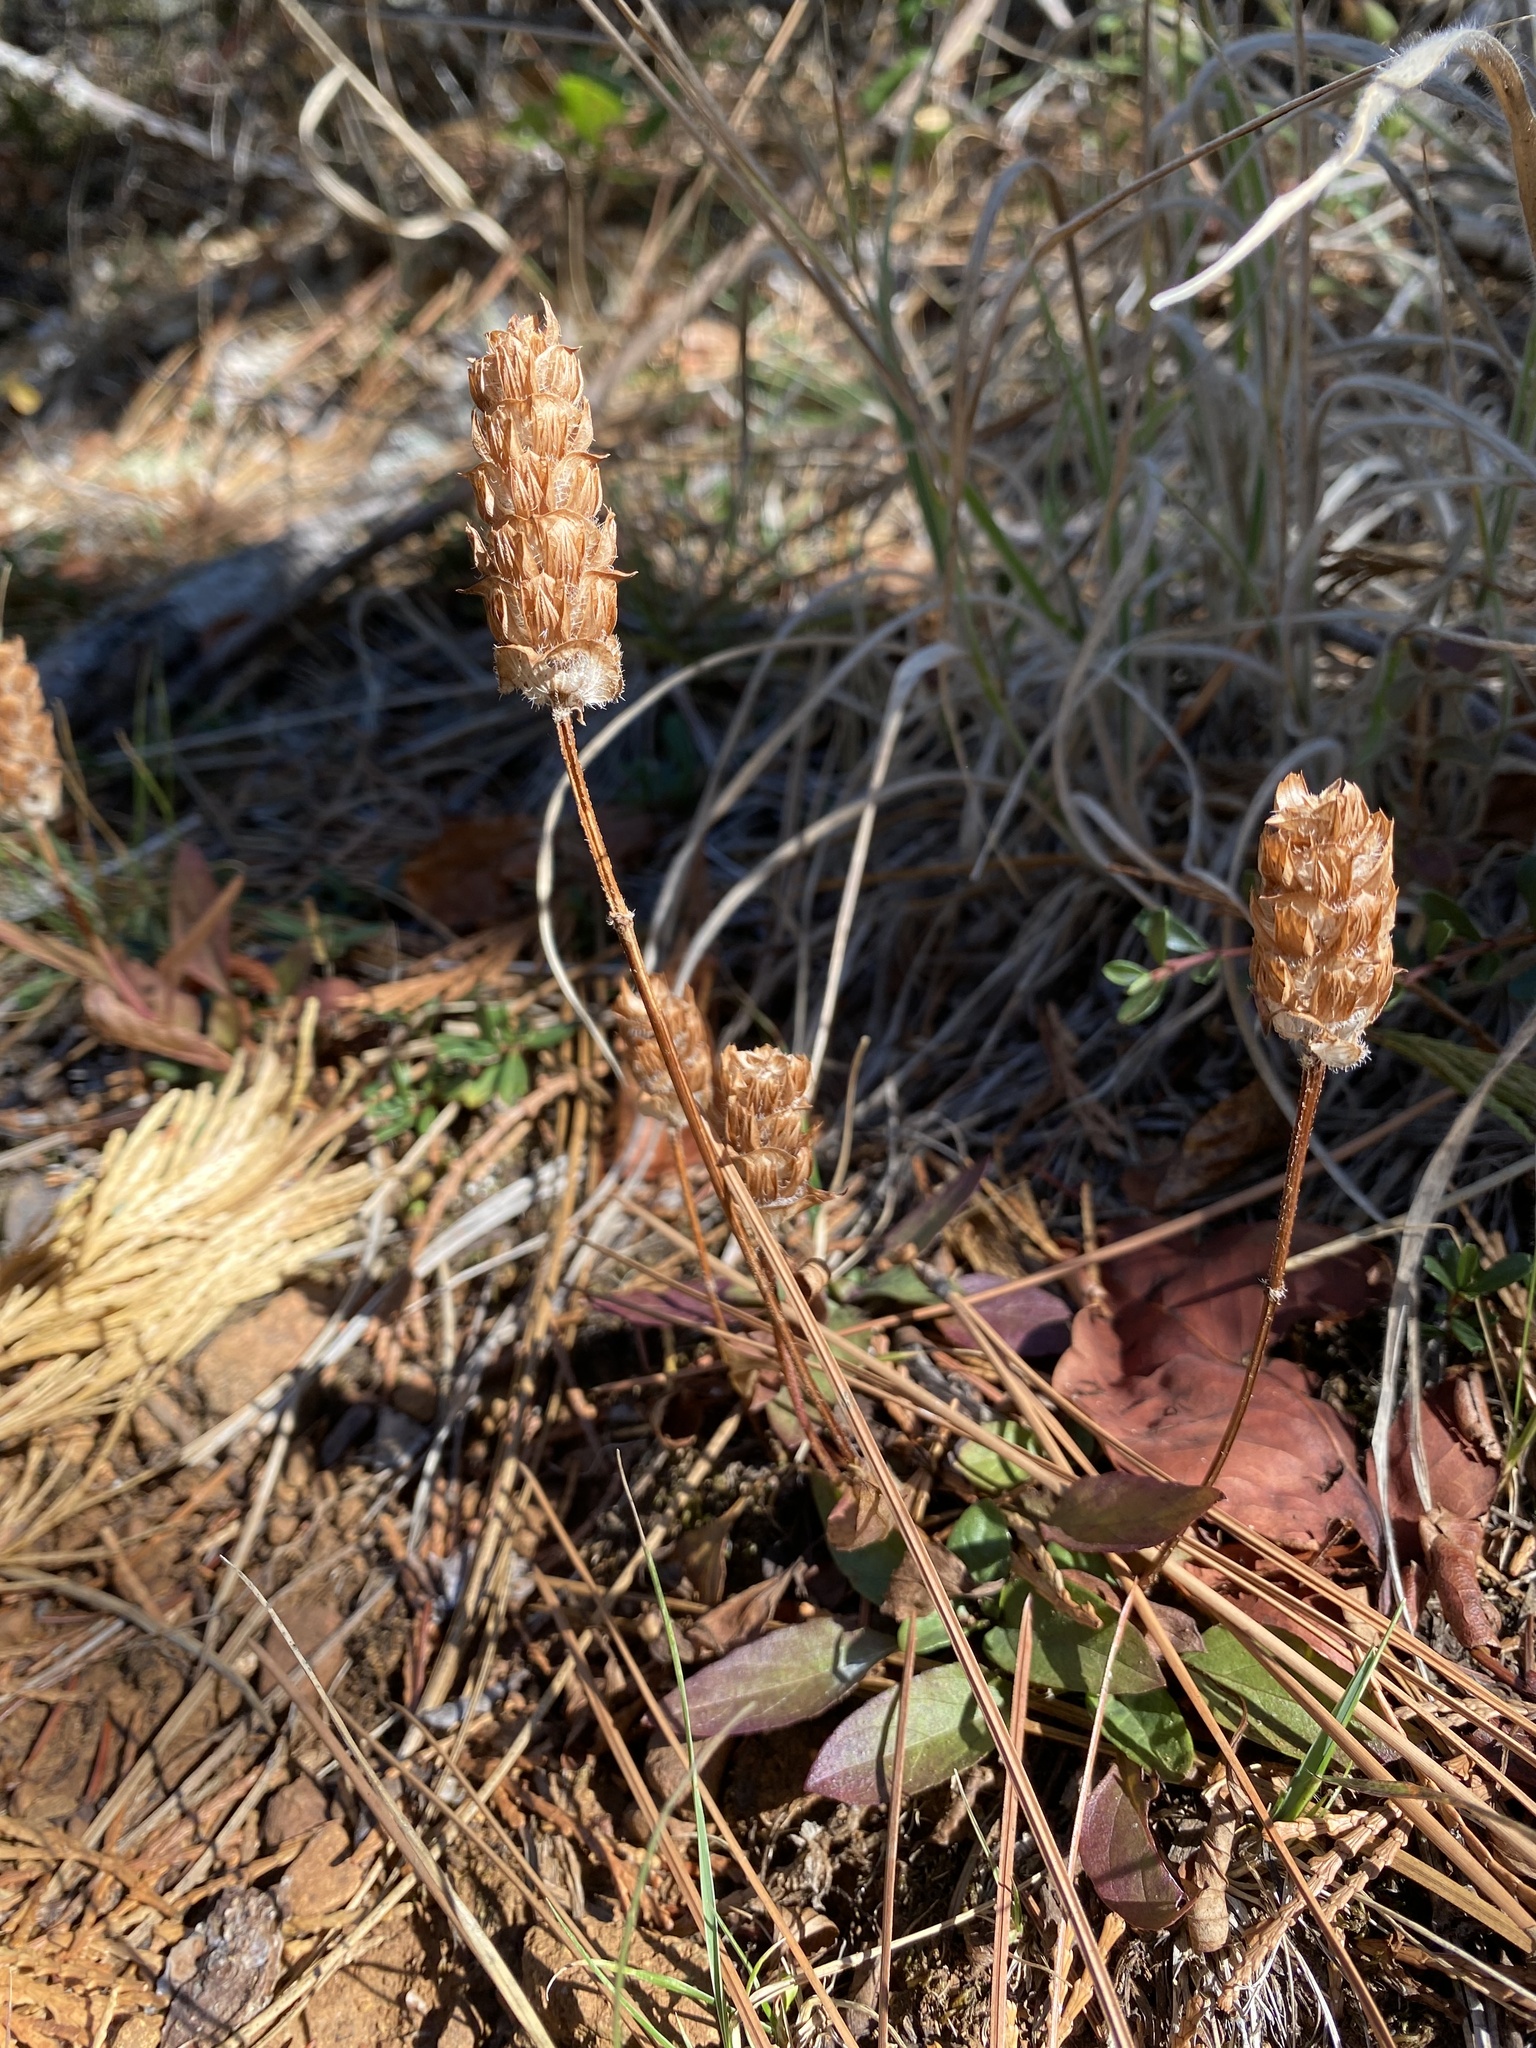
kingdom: Plantae
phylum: Tracheophyta
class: Magnoliopsida
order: Lamiales
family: Lamiaceae
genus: Prunella
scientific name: Prunella vulgaris
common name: Heal-all
